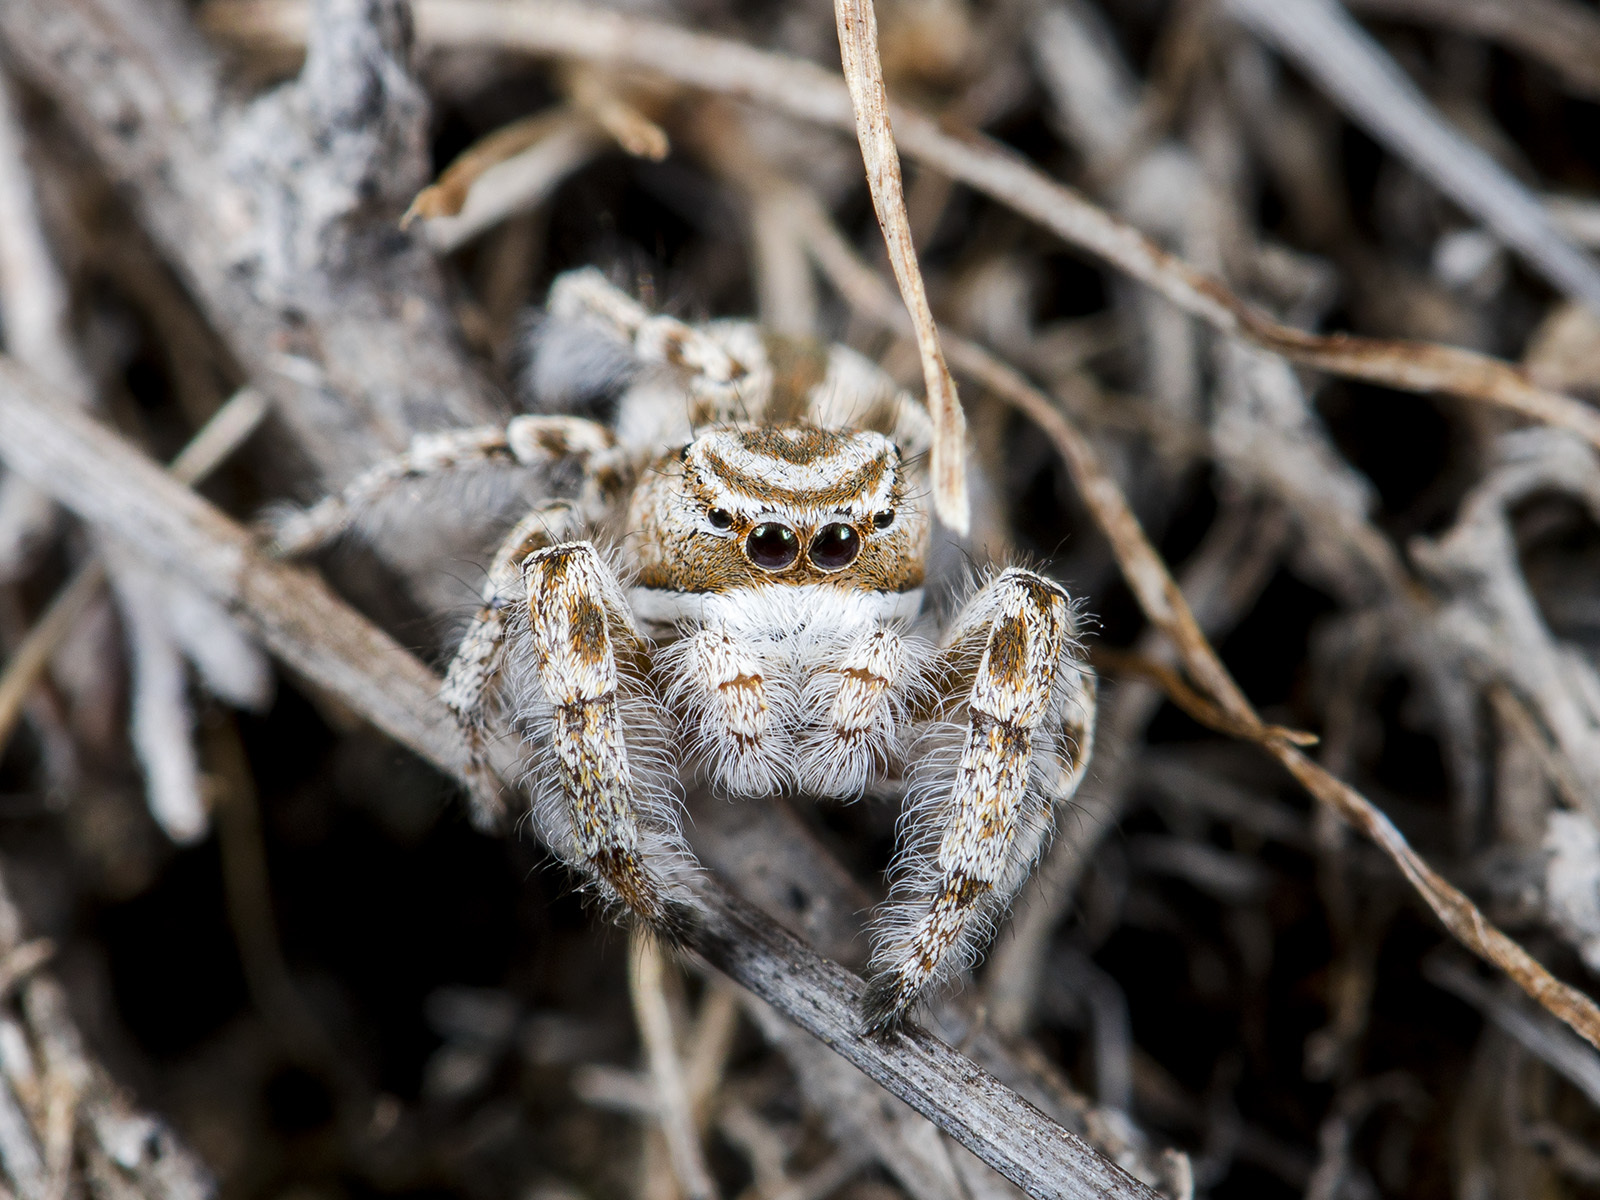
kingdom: Animalia
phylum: Arthropoda
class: Arachnida
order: Araneae
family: Salticidae
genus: Pseudomogrus
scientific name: Pseudomogrus zhilgaensis
